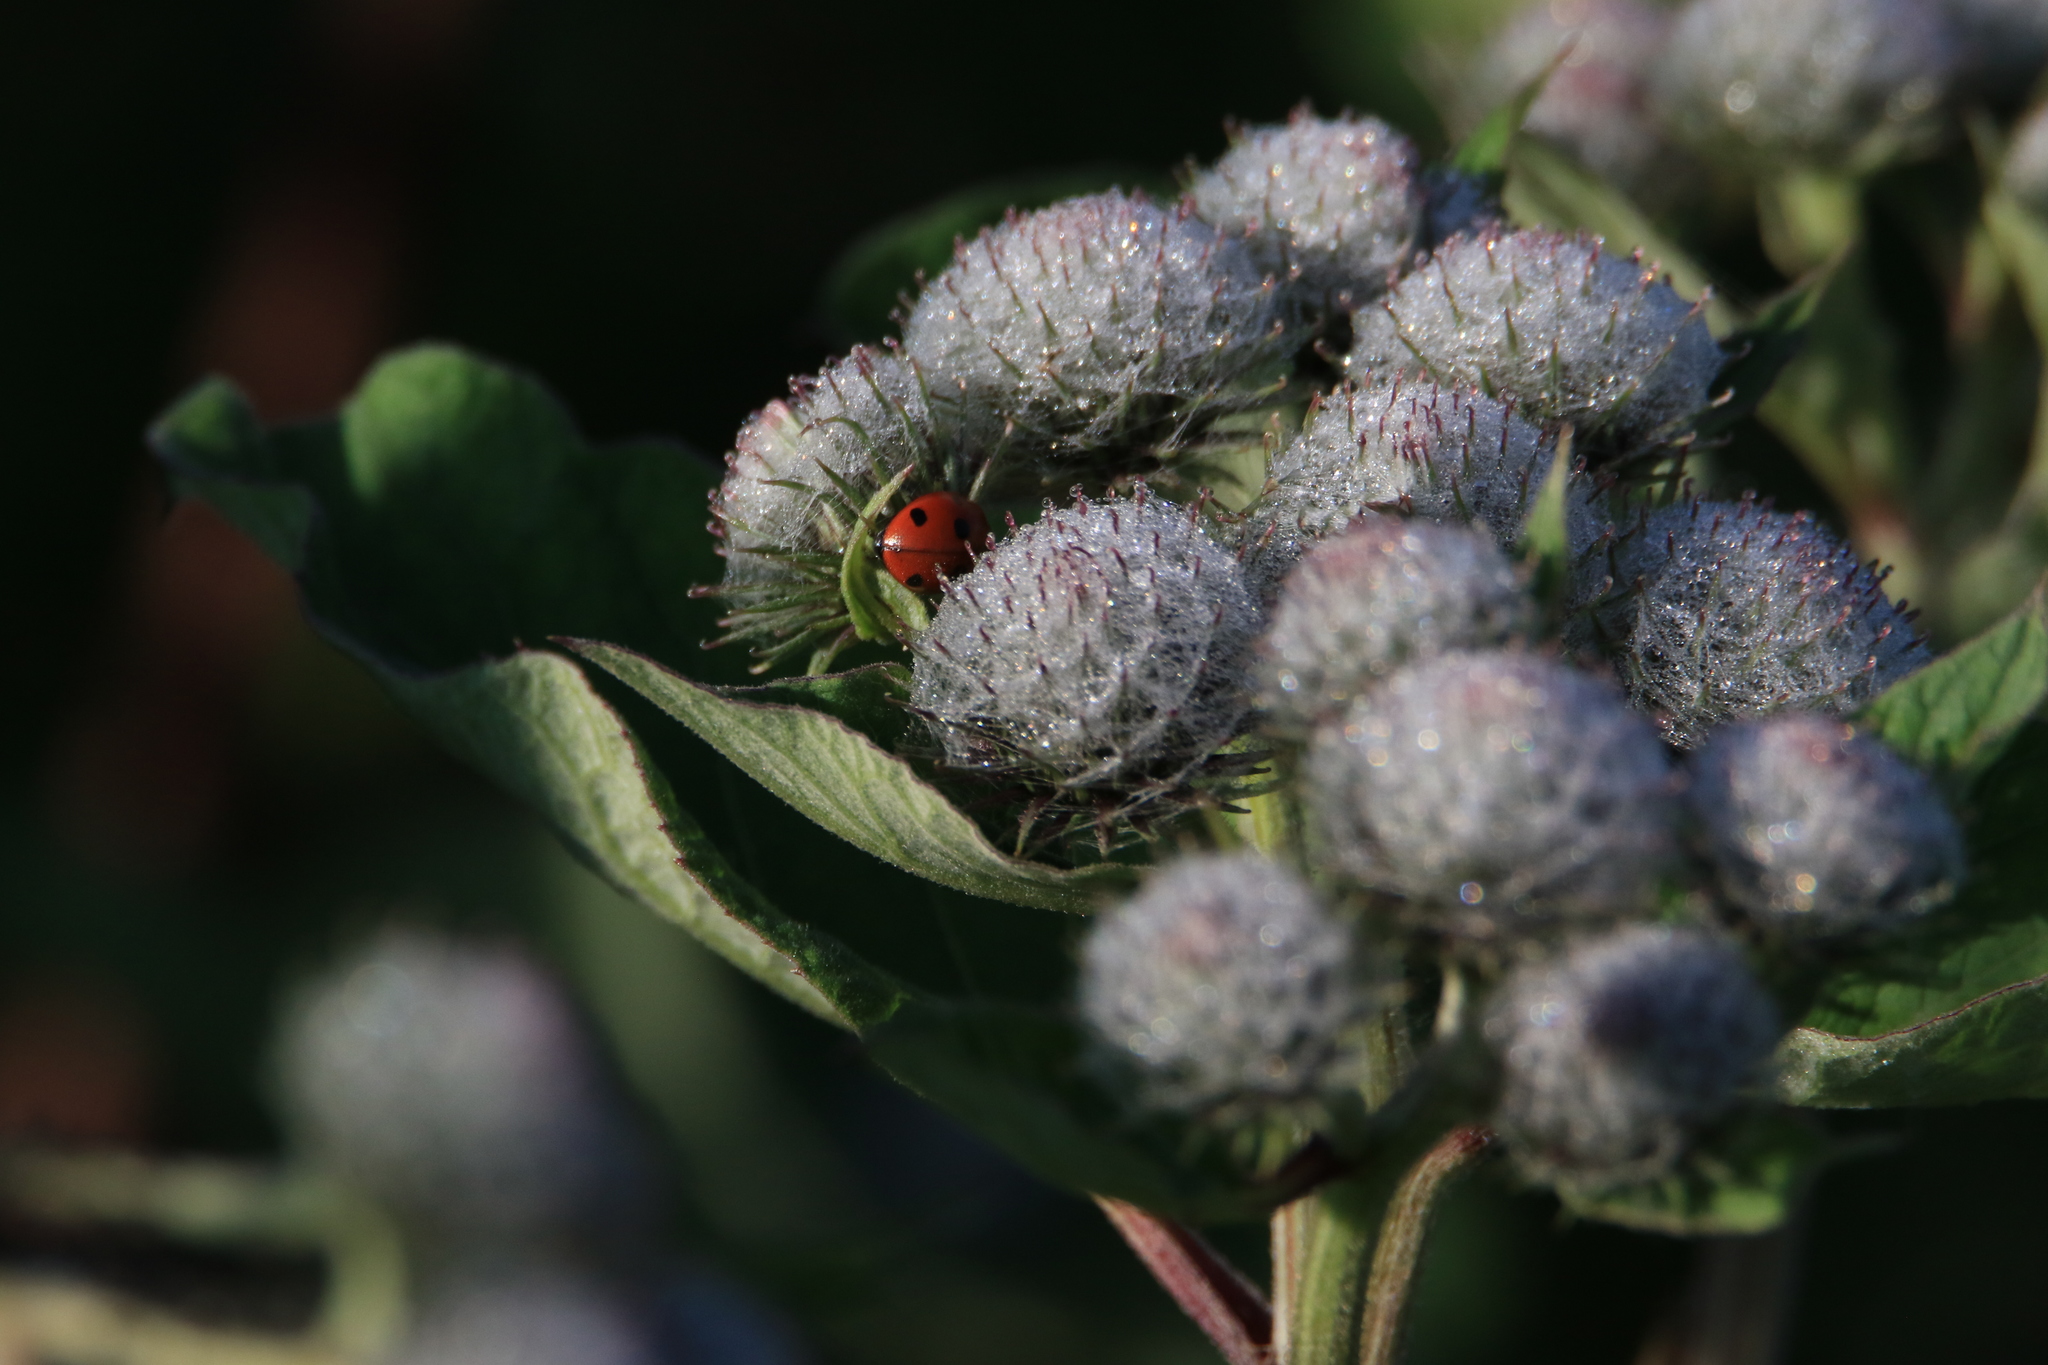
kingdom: Plantae
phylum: Tracheophyta
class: Magnoliopsida
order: Asterales
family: Asteraceae
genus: Arctium
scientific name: Arctium tomentosum
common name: Woolly burdock
